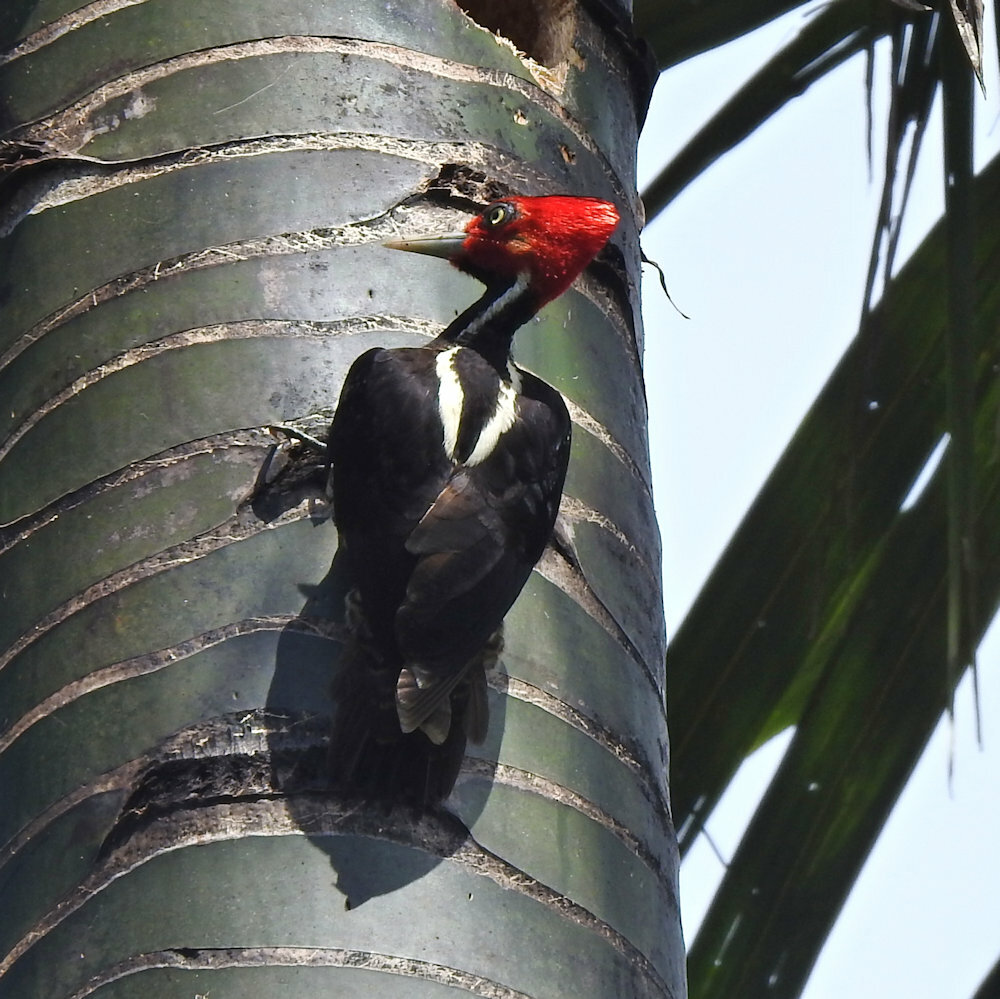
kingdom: Animalia
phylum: Chordata
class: Aves
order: Piciformes
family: Picidae
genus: Campephilus
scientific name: Campephilus guatemalensis
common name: Pale-billed woodpecker
